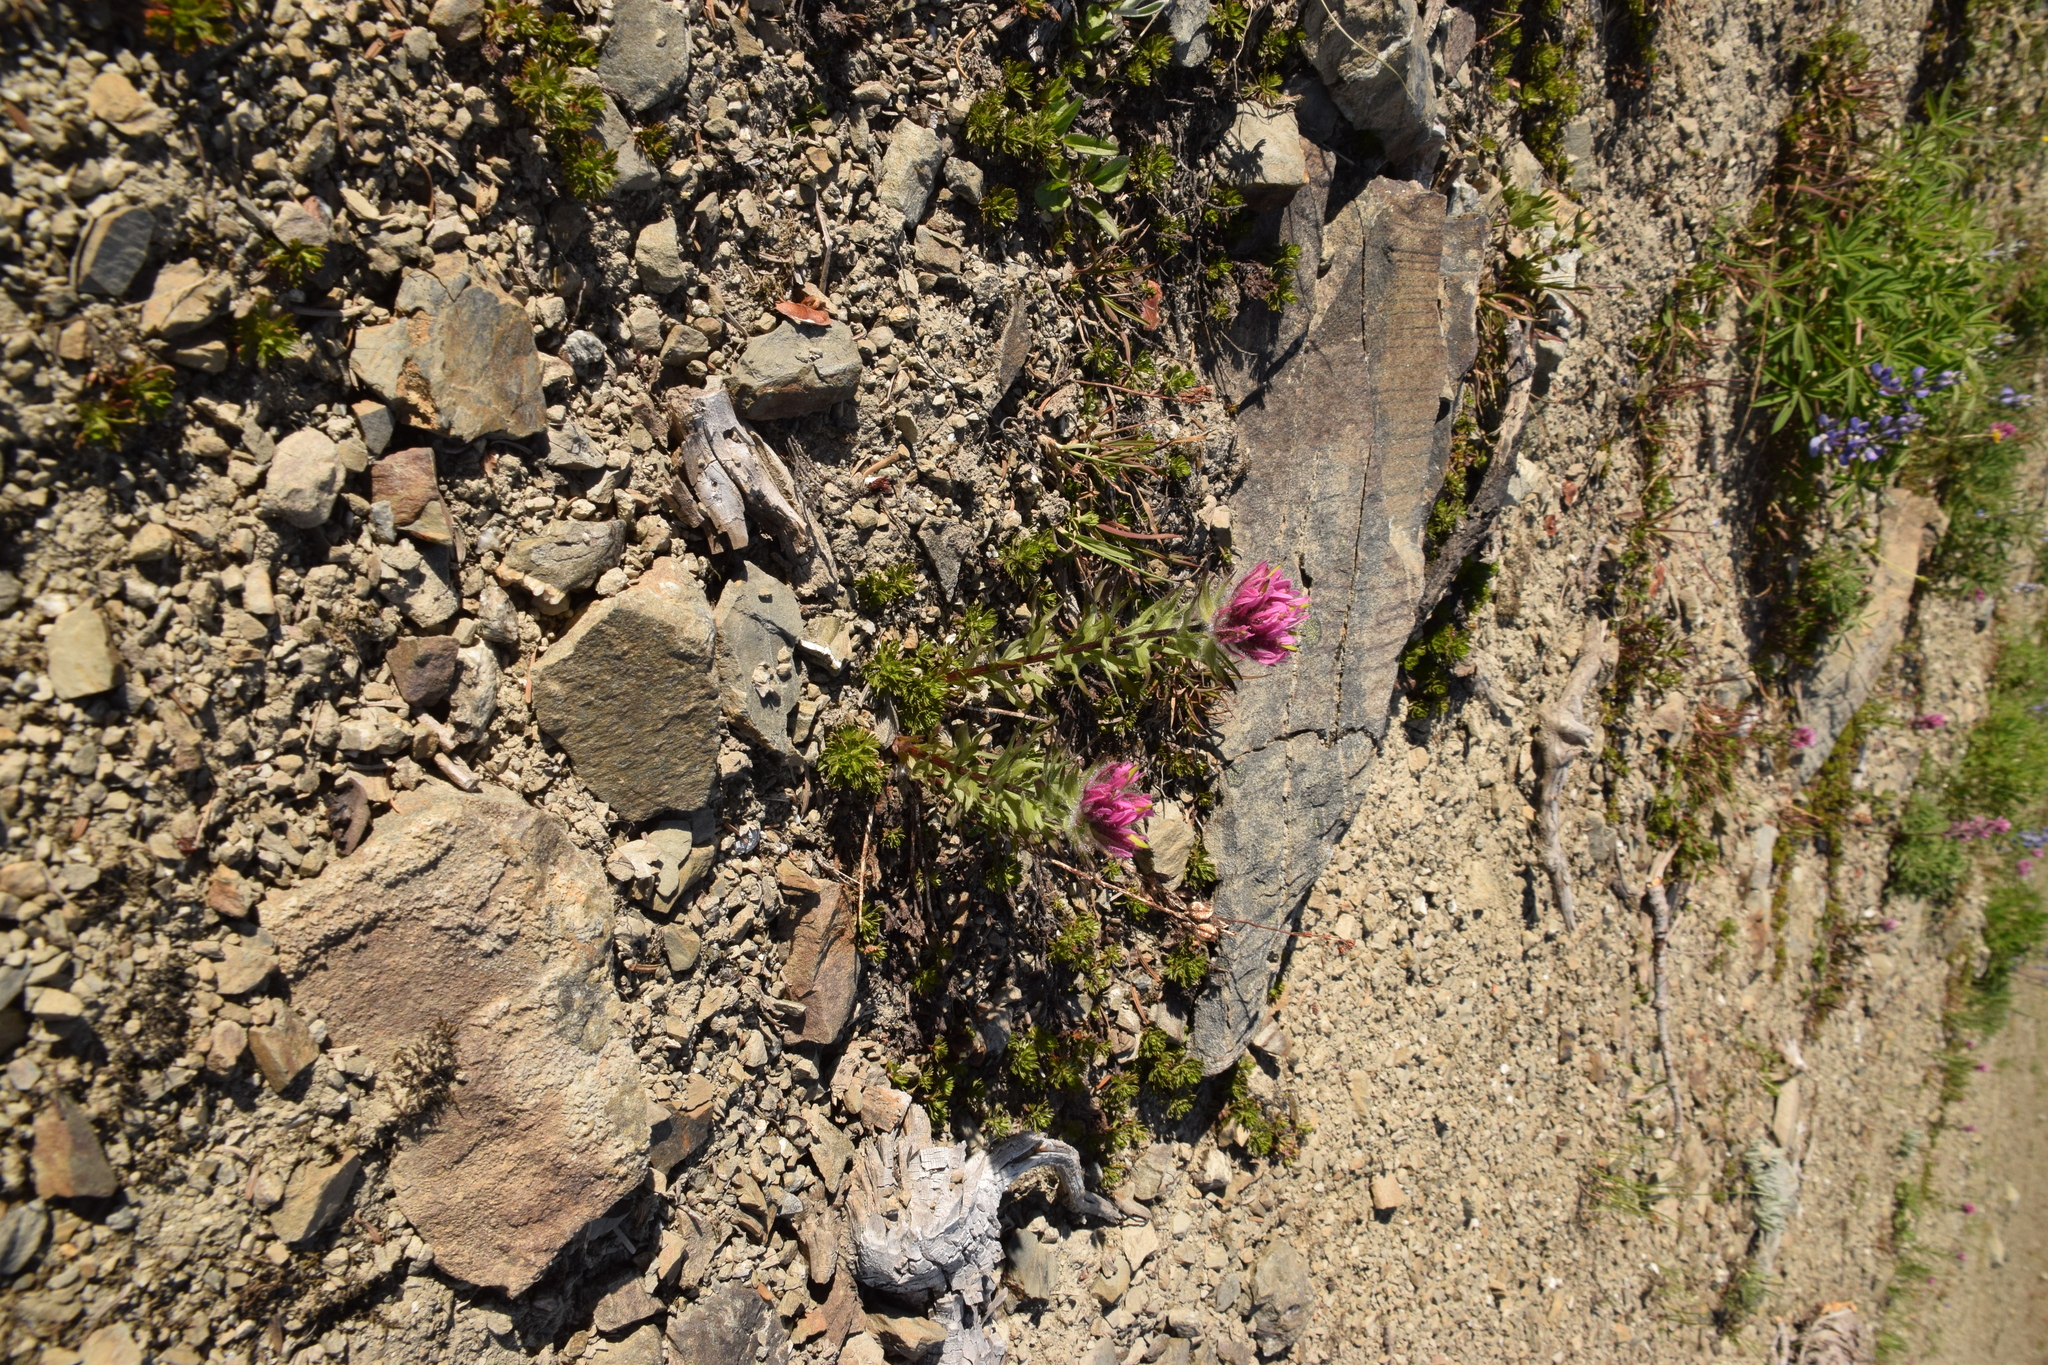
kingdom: Plantae
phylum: Tracheophyta
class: Magnoliopsida
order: Lamiales
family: Orobanchaceae
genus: Castilleja
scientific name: Castilleja parviflora
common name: Mountain paintbrush
